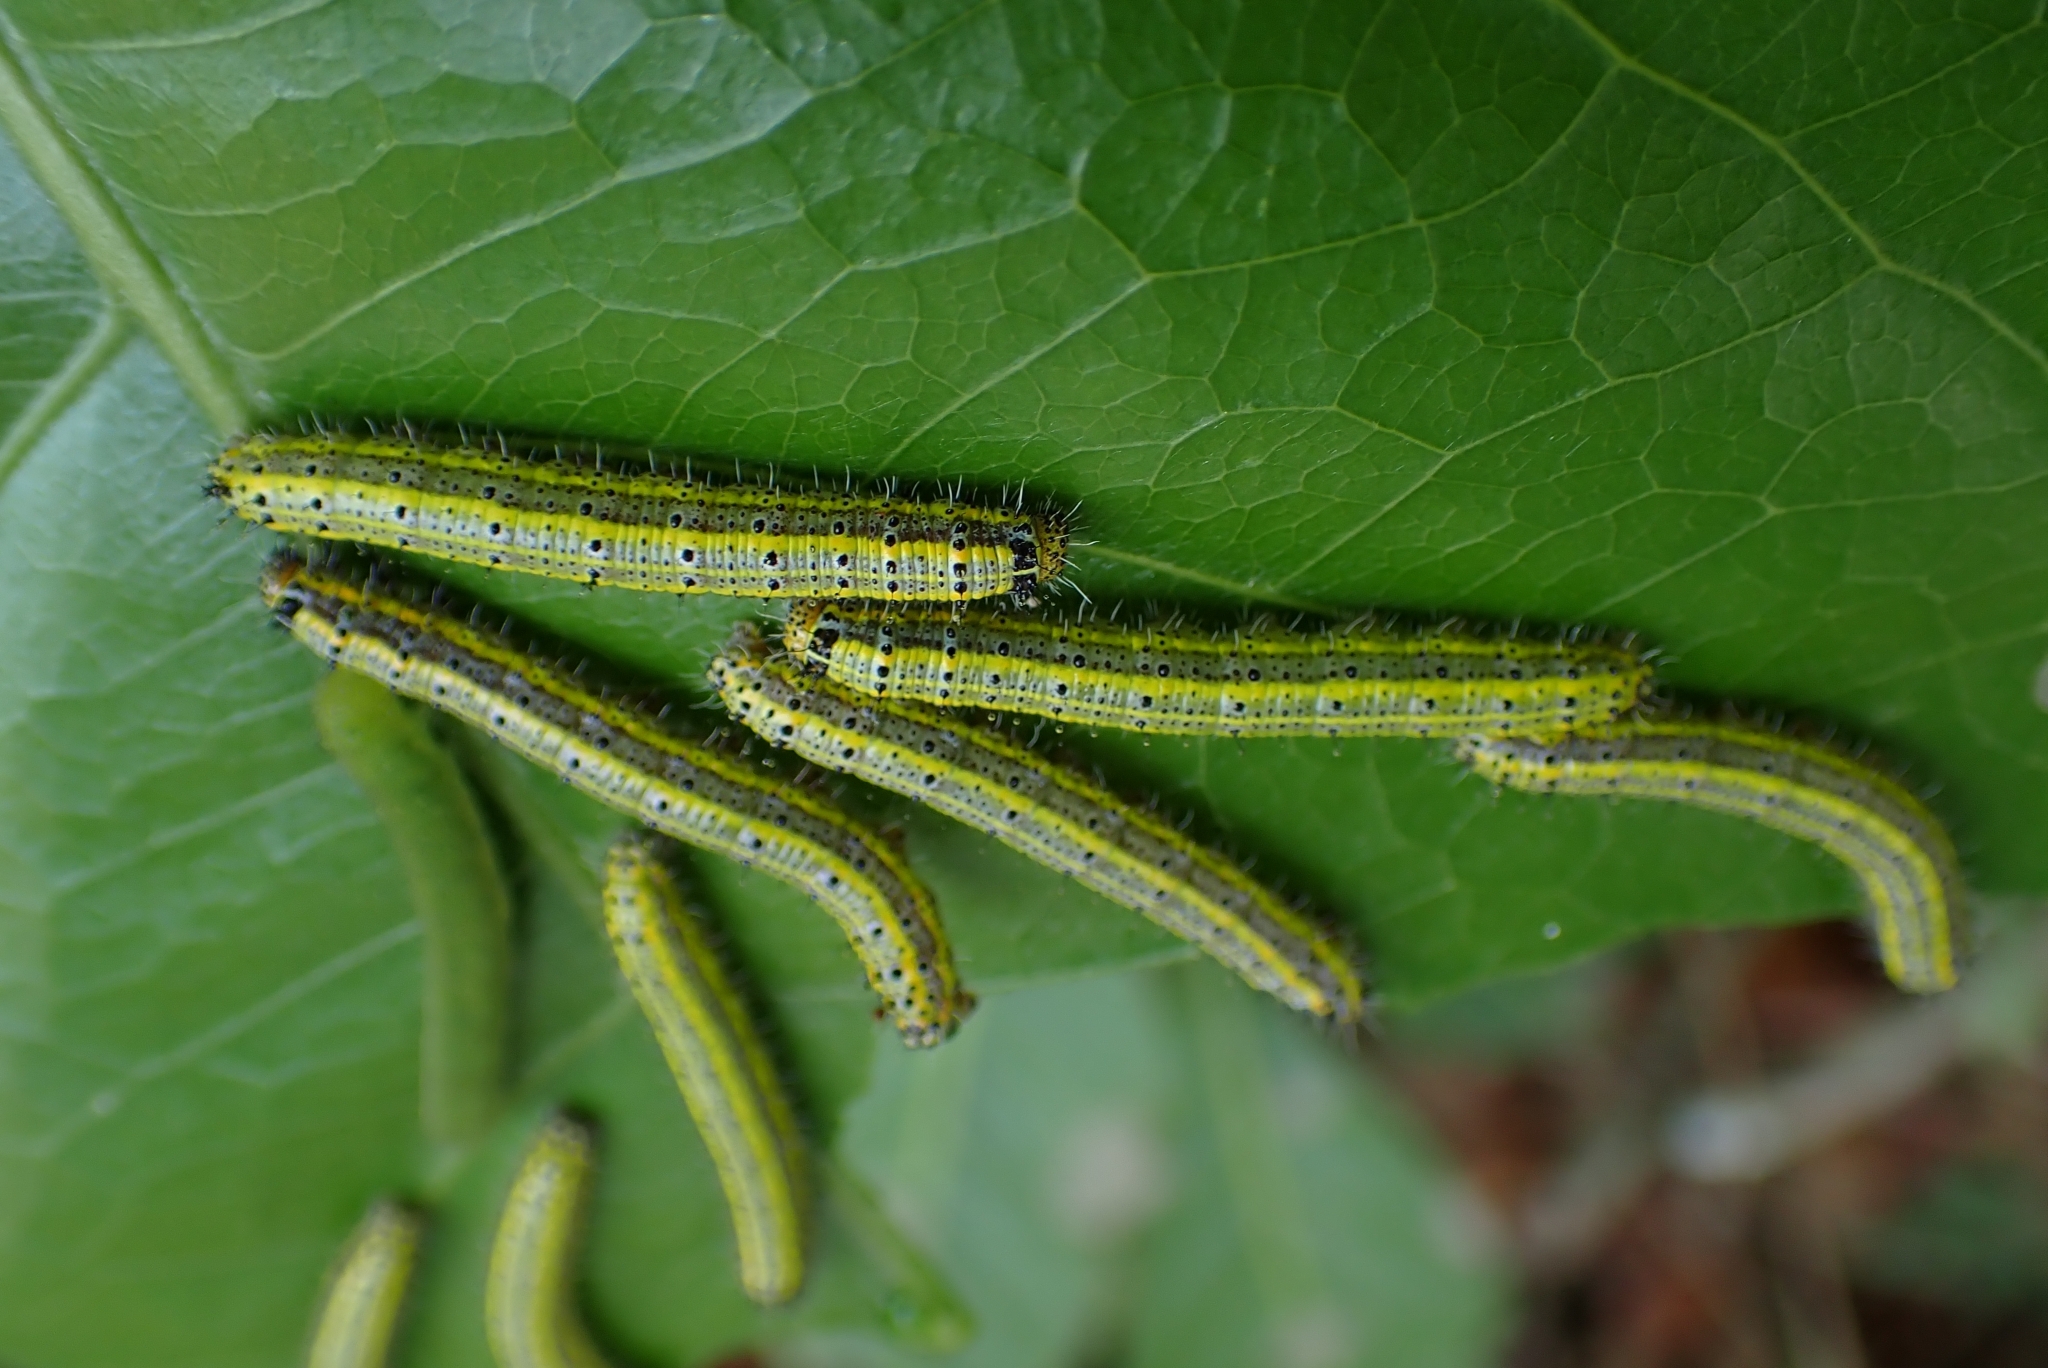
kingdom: Animalia
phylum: Arthropoda
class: Insecta
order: Lepidoptera
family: Pieridae
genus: Ascia
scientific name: Ascia monuste
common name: Great southern white
